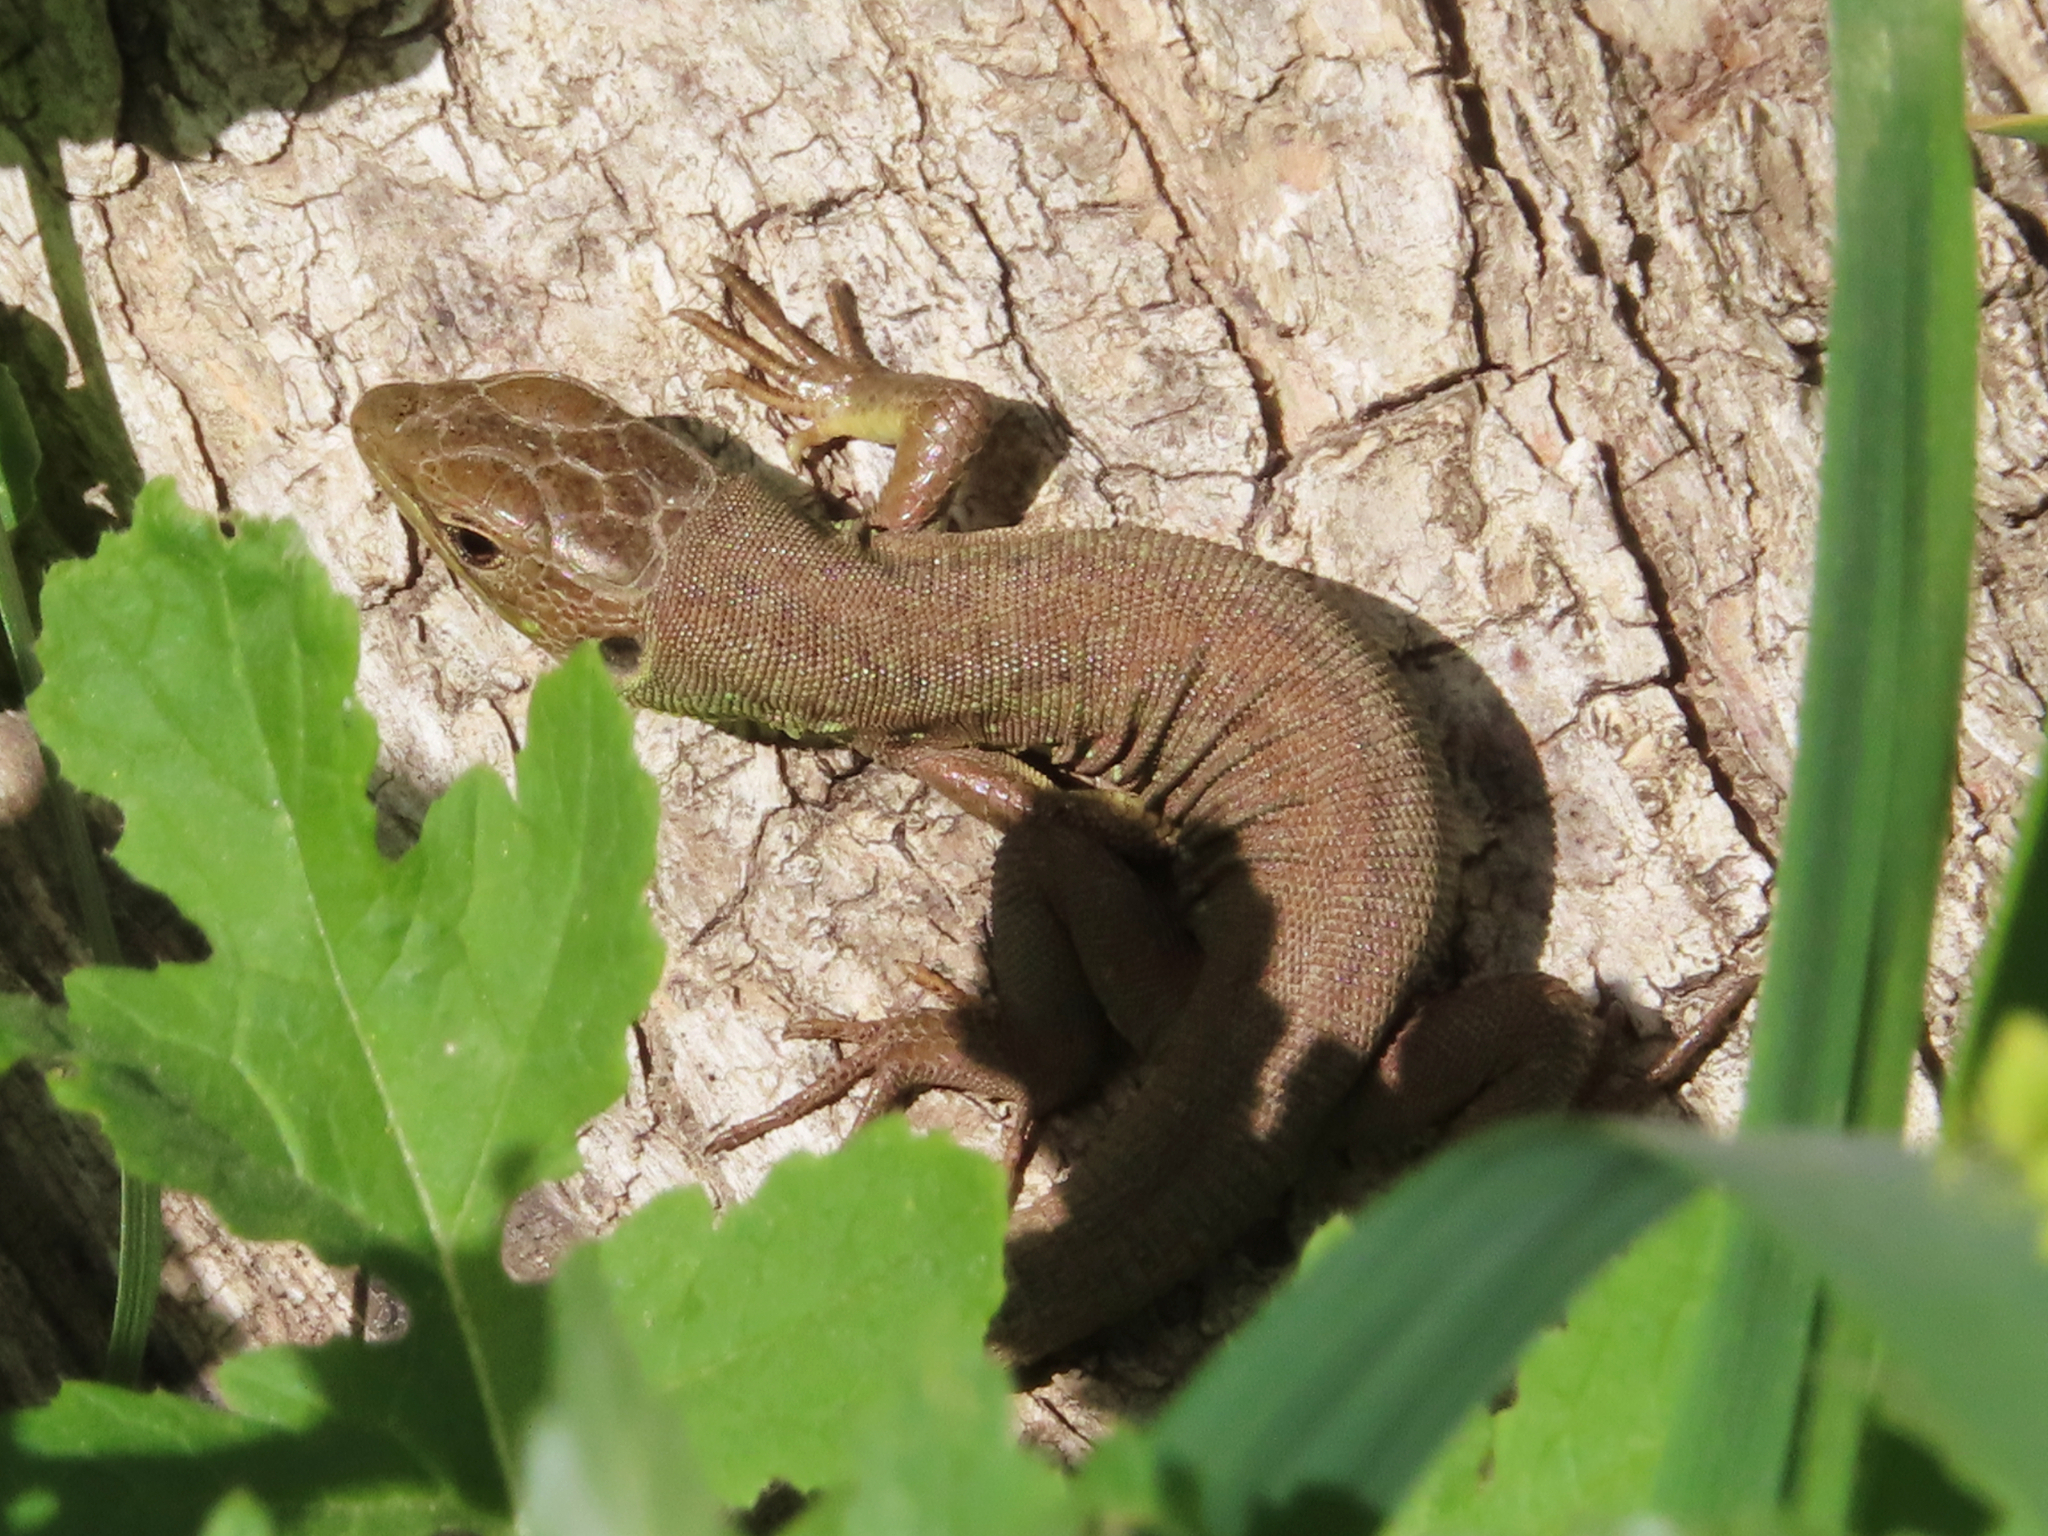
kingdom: Animalia
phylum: Chordata
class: Squamata
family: Lacertidae
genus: Lacerta
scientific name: Lacerta trilineata
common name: Balkan green lizard
